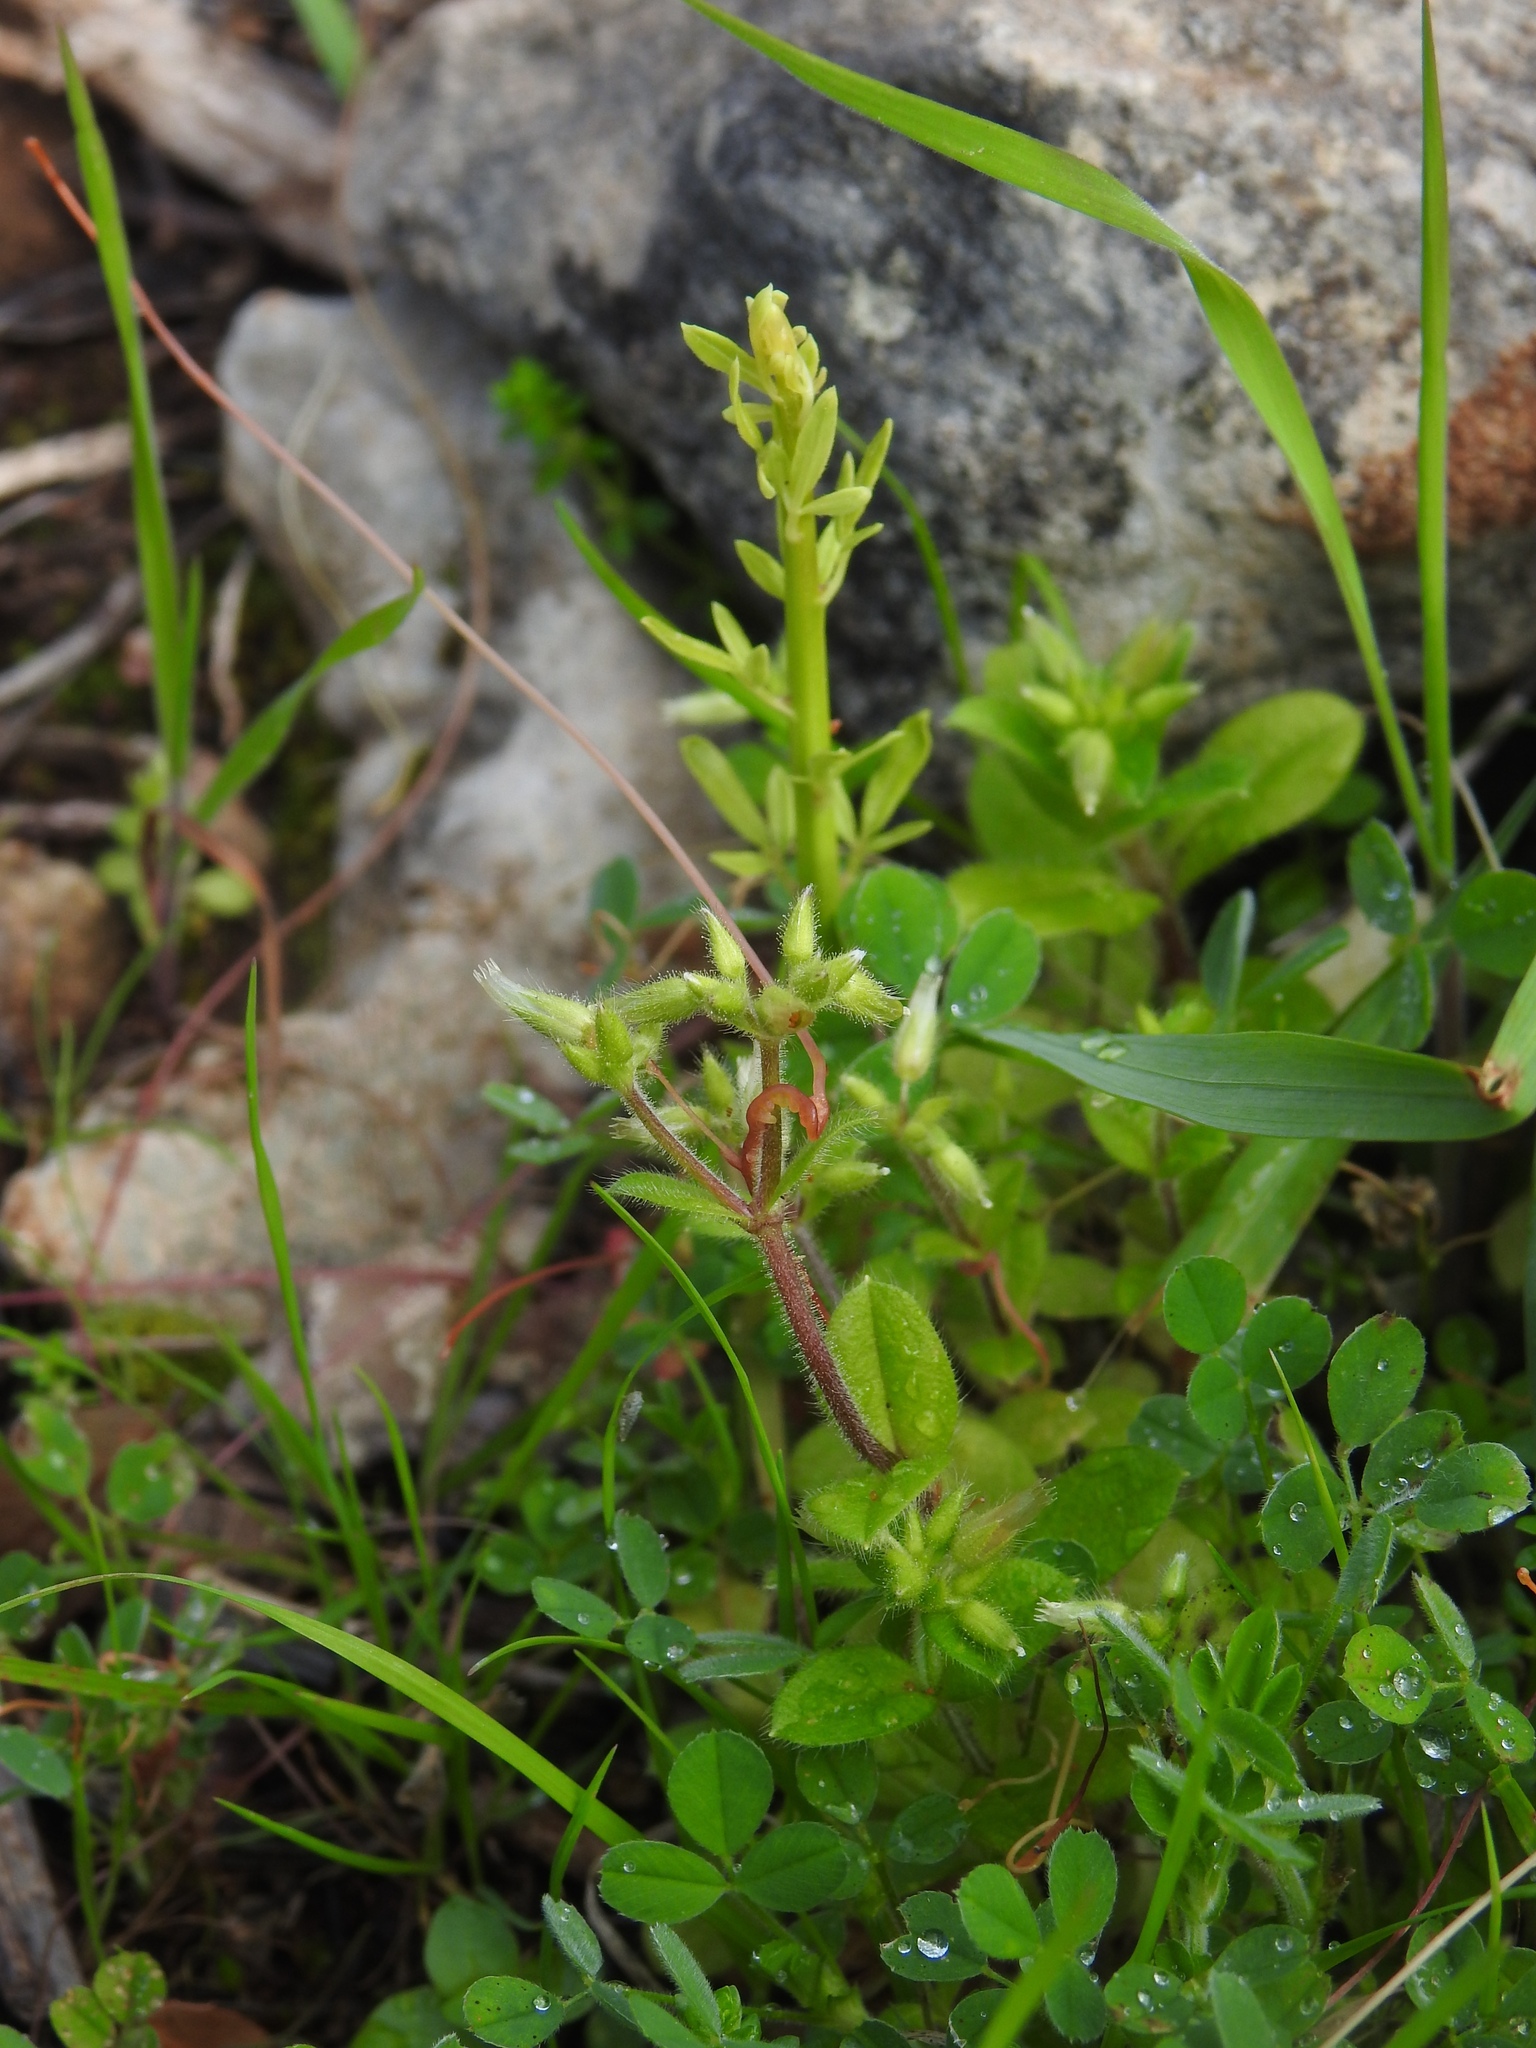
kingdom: Plantae
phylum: Tracheophyta
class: Magnoliopsida
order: Caryophyllales
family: Caryophyllaceae
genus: Cerastium
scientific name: Cerastium glomeratum
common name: Sticky chickweed
